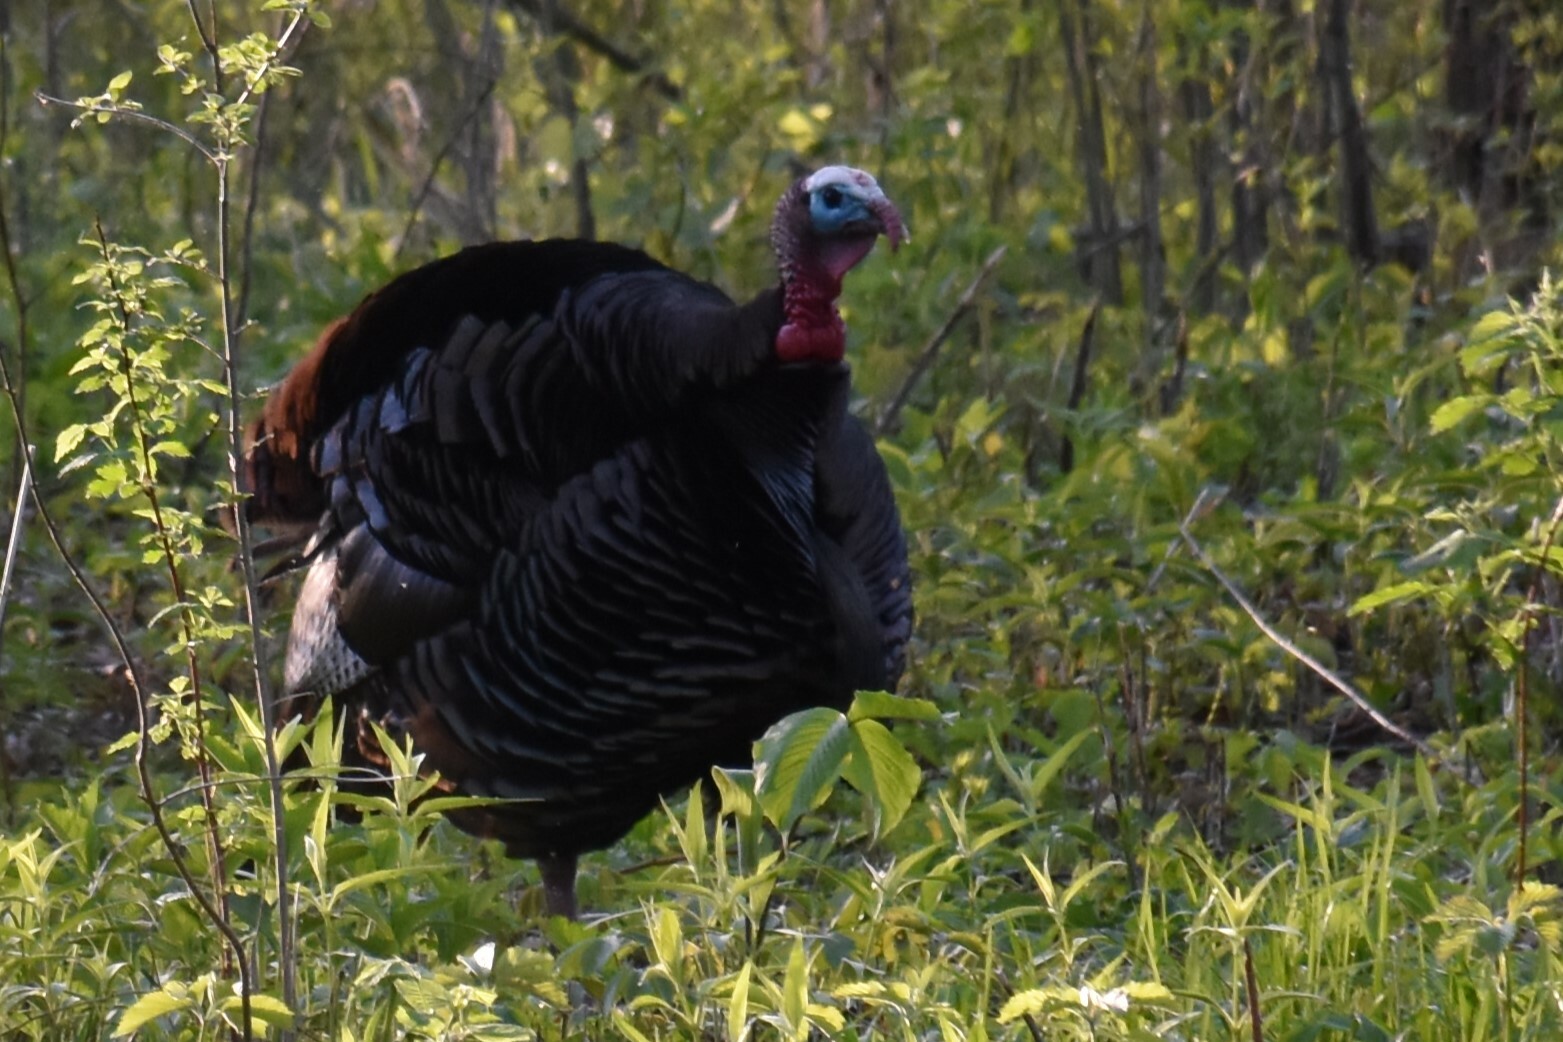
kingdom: Animalia
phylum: Chordata
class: Aves
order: Galliformes
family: Phasianidae
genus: Meleagris
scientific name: Meleagris gallopavo
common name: Wild turkey
